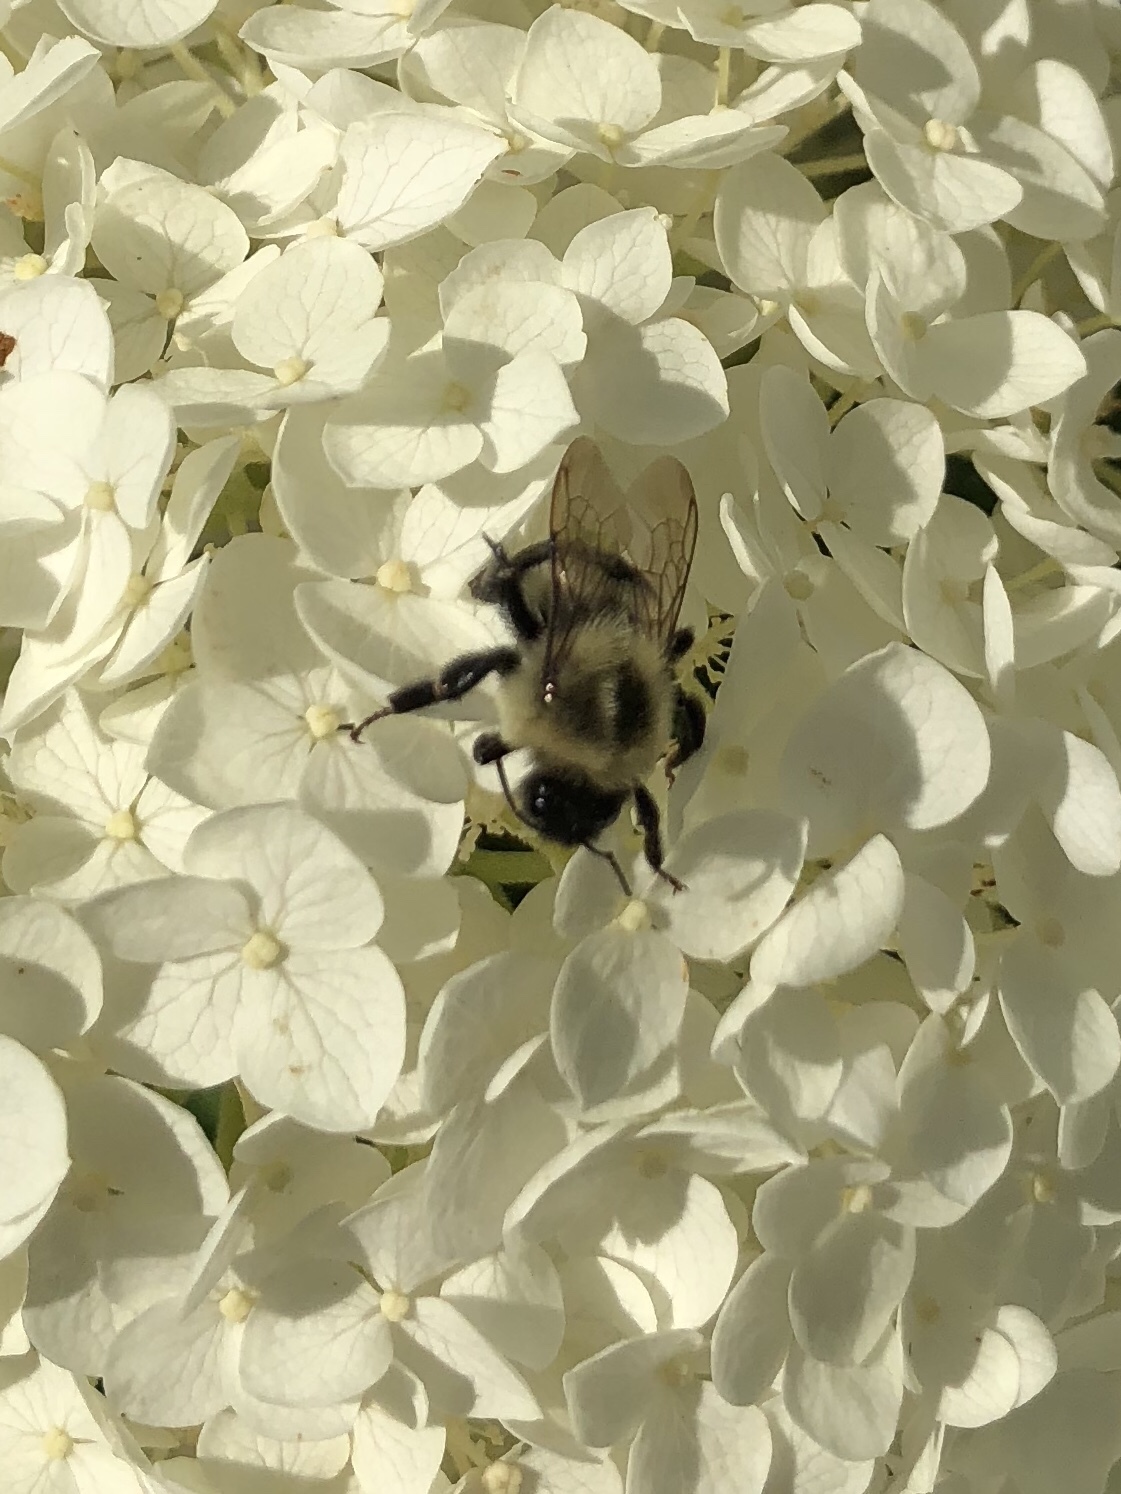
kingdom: Animalia
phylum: Arthropoda
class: Insecta
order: Hymenoptera
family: Apidae
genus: Bombus
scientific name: Bombus impatiens
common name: Common eastern bumble bee
